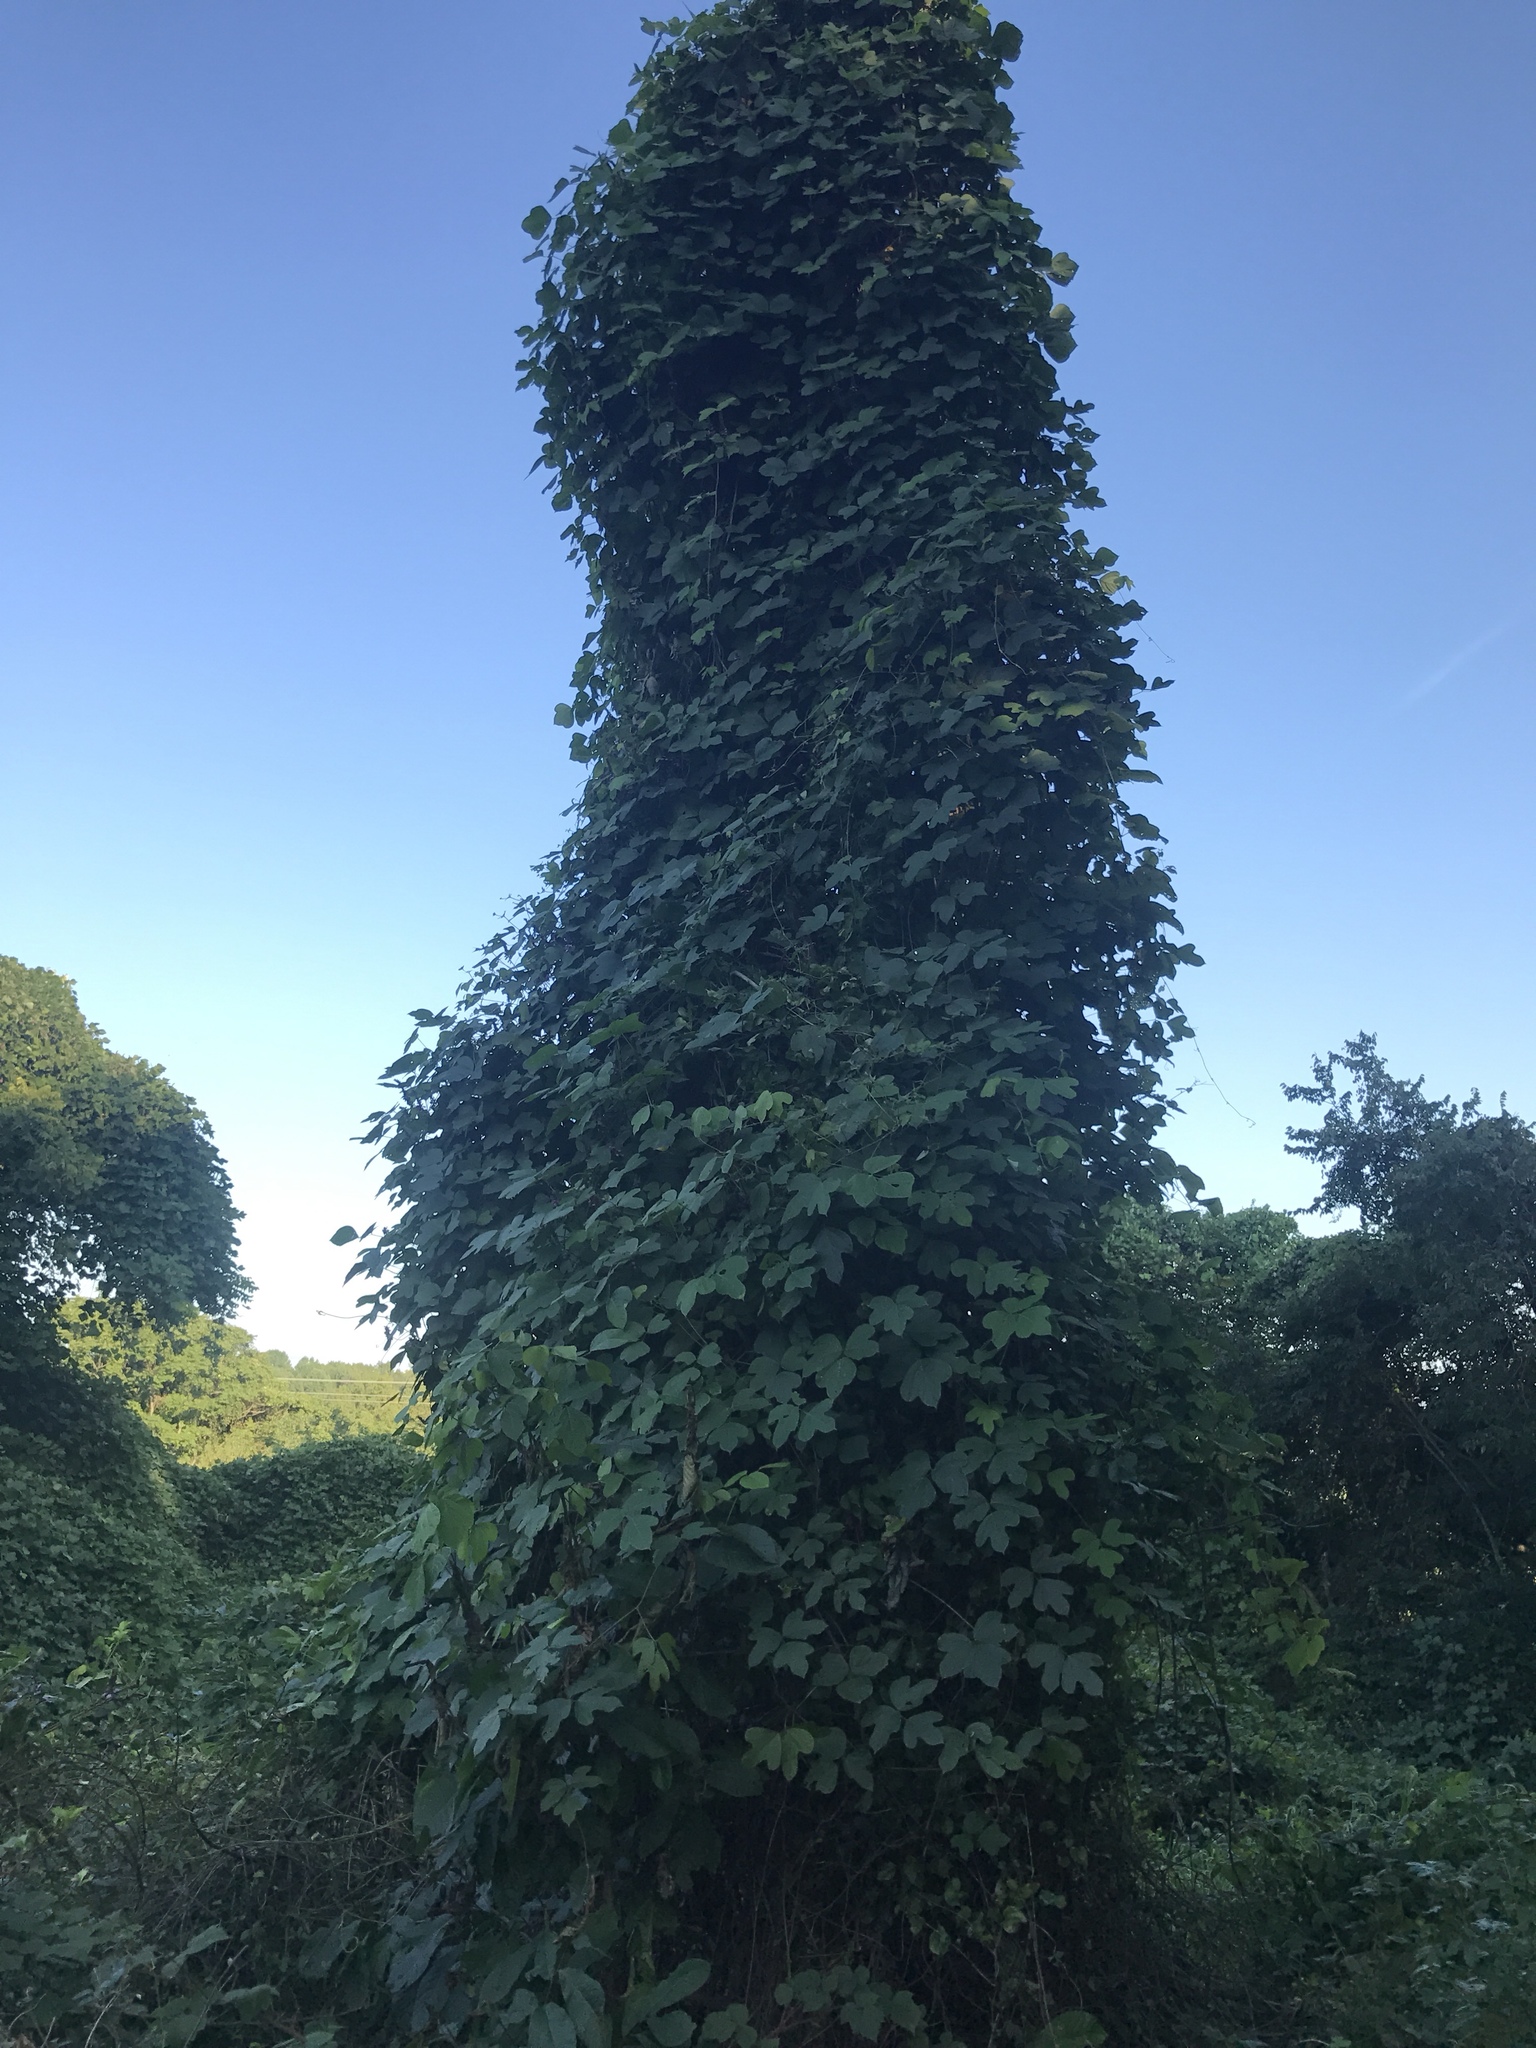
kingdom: Plantae
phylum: Tracheophyta
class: Magnoliopsida
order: Fabales
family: Fabaceae
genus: Pueraria
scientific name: Pueraria montana
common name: Kudzu
